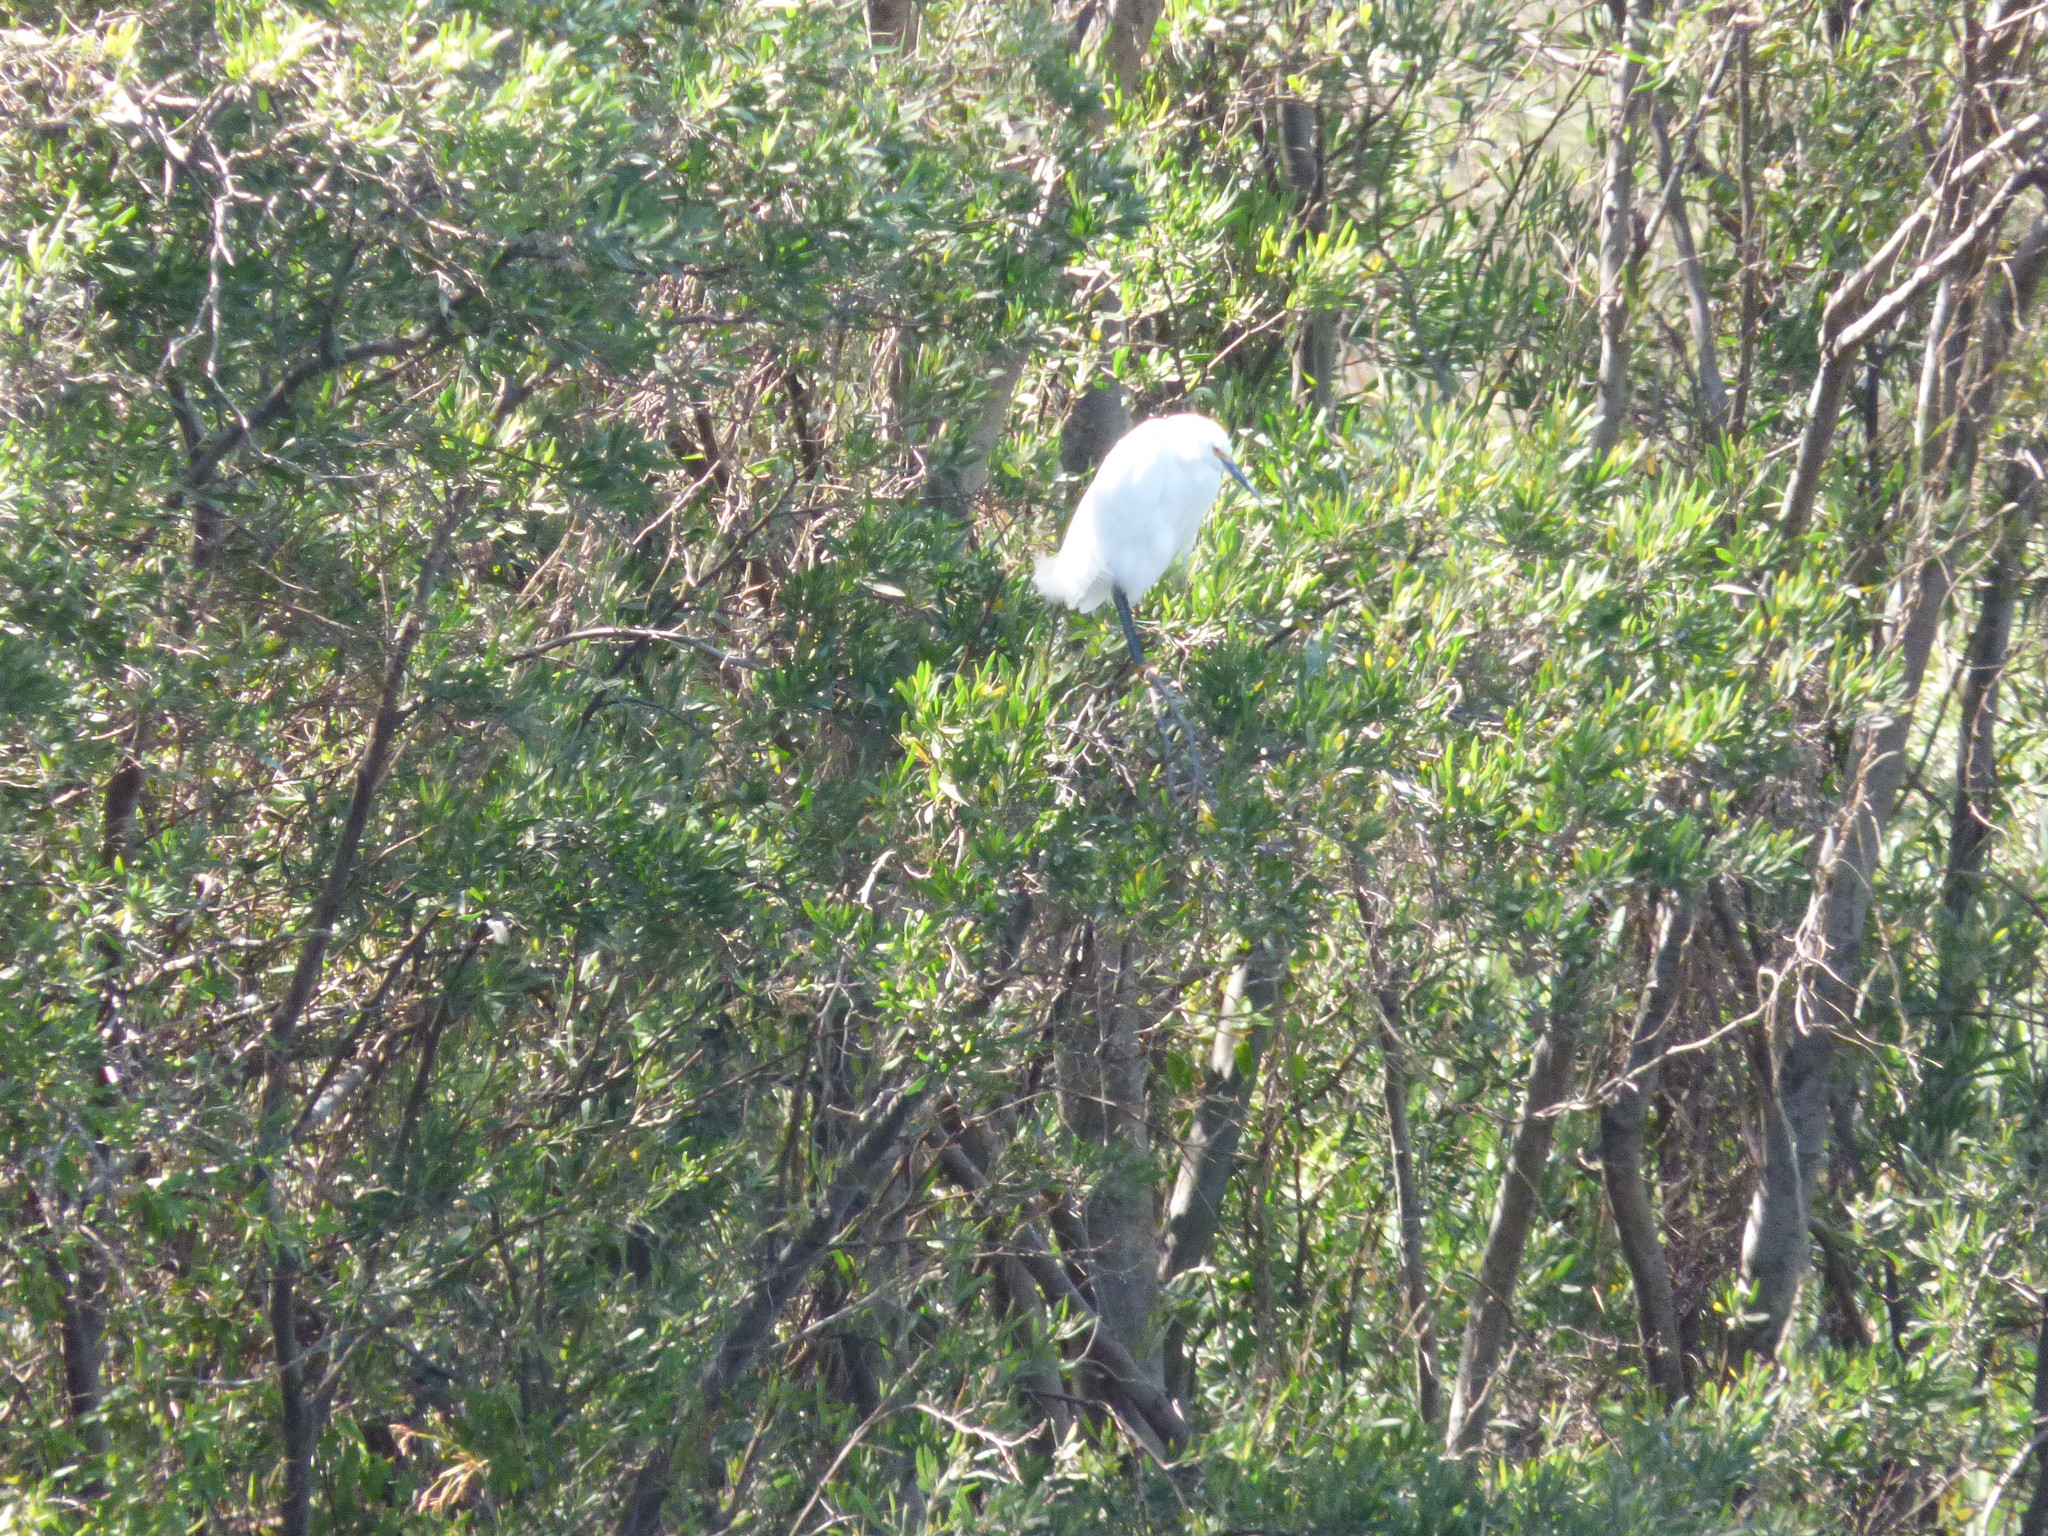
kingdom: Animalia
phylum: Chordata
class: Aves
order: Pelecaniformes
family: Ardeidae
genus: Egretta
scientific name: Egretta thula
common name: Snowy egret
